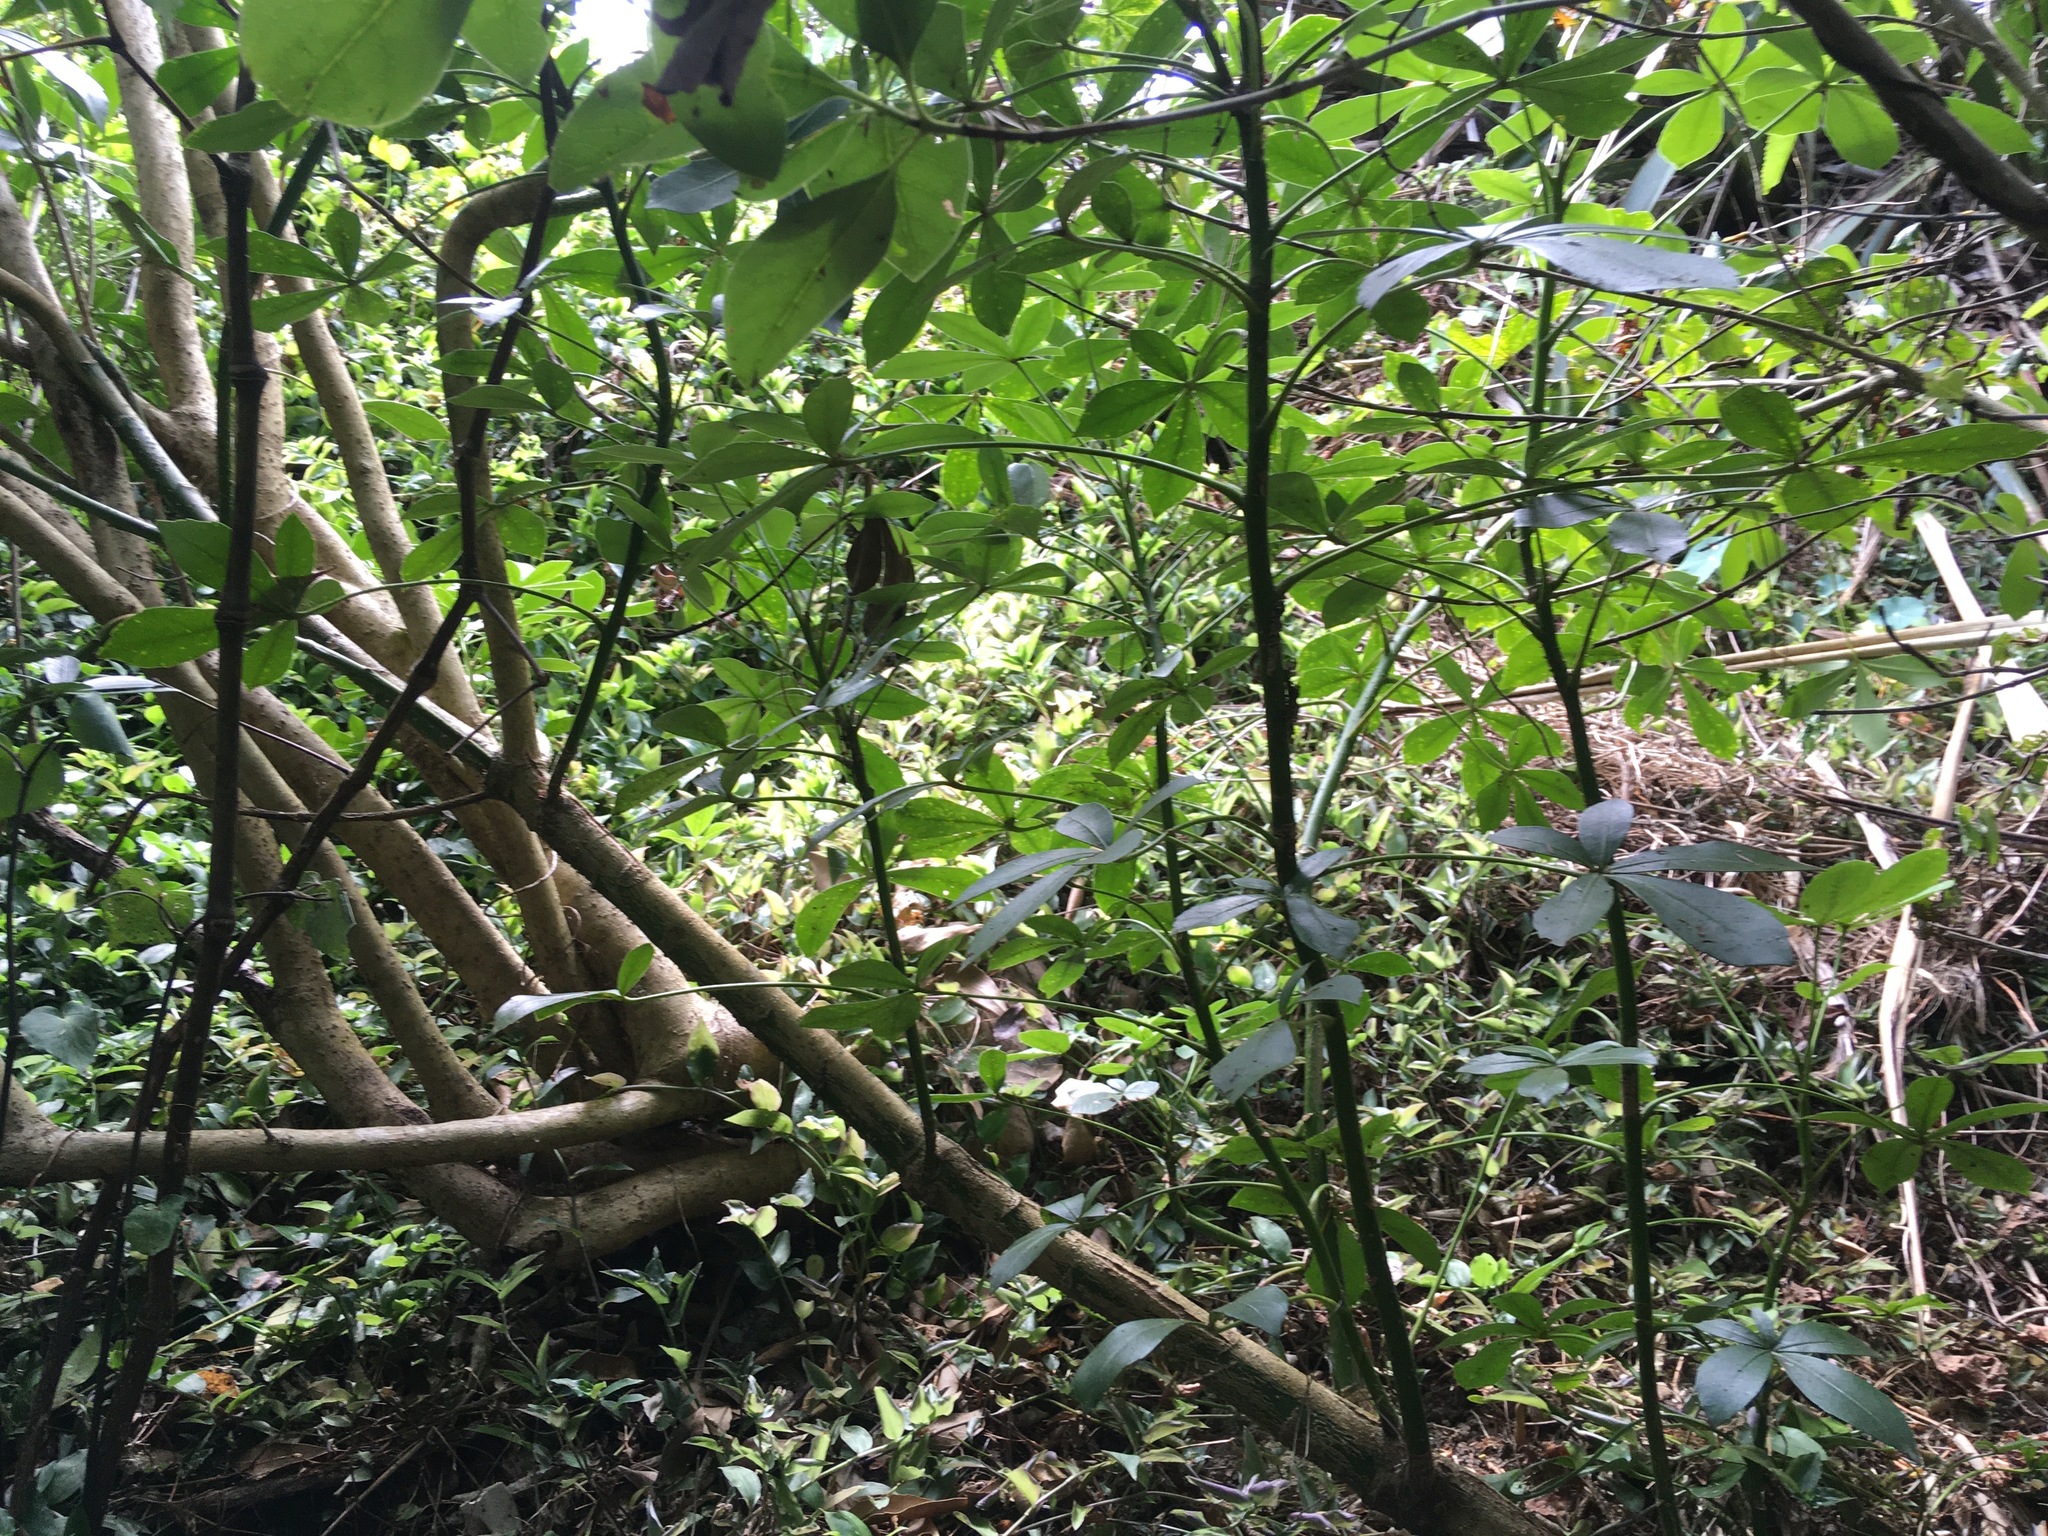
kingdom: Plantae
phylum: Tracheophyta
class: Magnoliopsida
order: Apiales
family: Araliaceae
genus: Neopanax
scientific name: Neopanax arboreus
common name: Five-fingers
